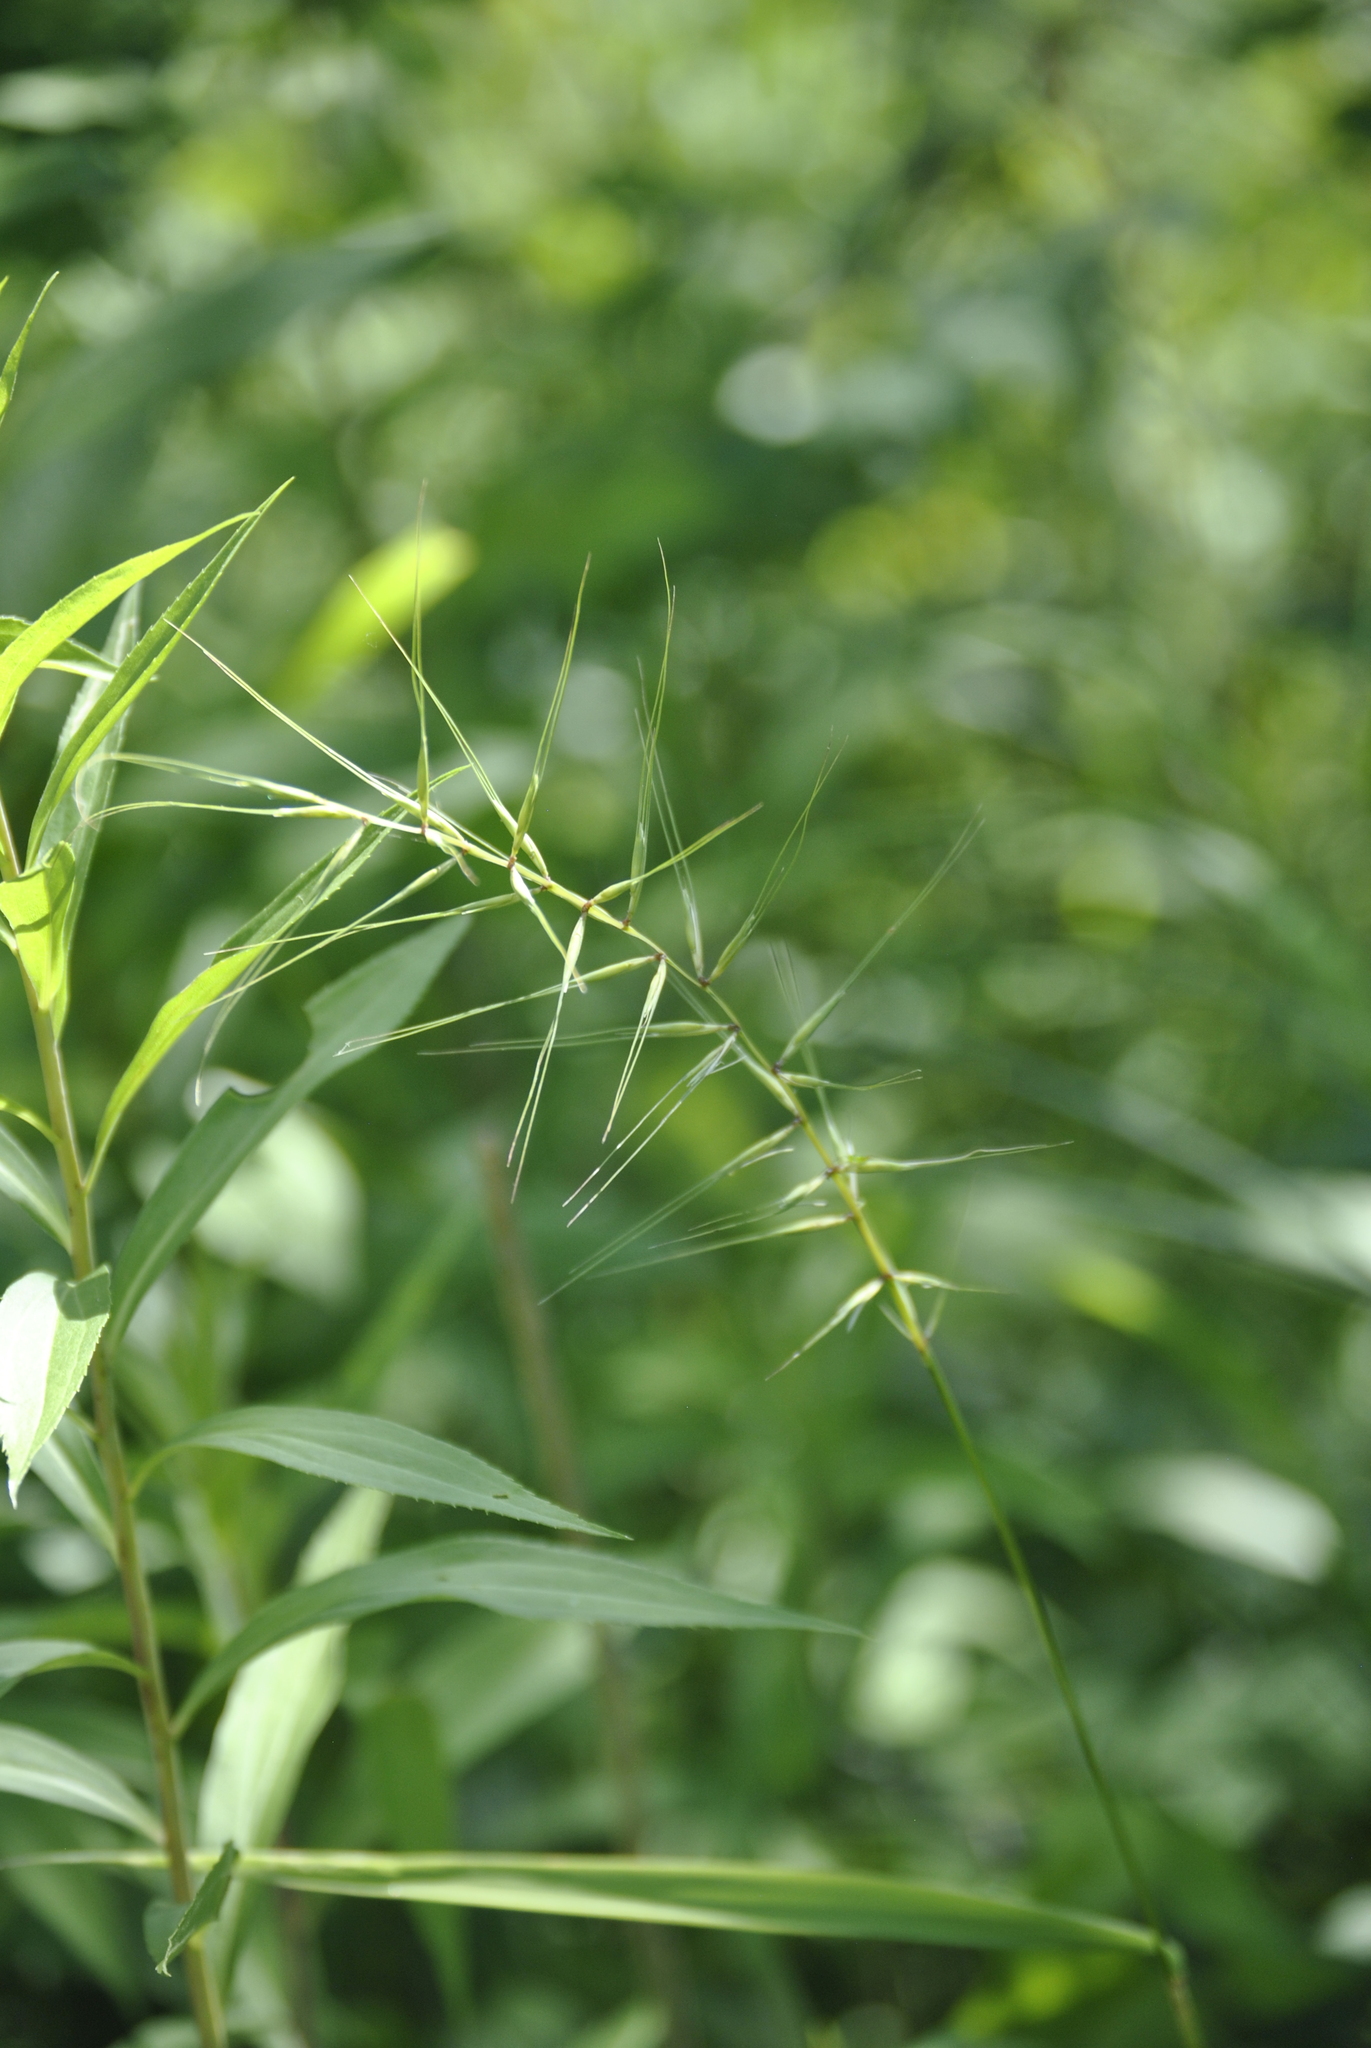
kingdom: Plantae
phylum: Tracheophyta
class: Liliopsida
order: Poales
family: Poaceae
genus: Elymus
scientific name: Elymus hystrix
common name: Bottlebrush grass
